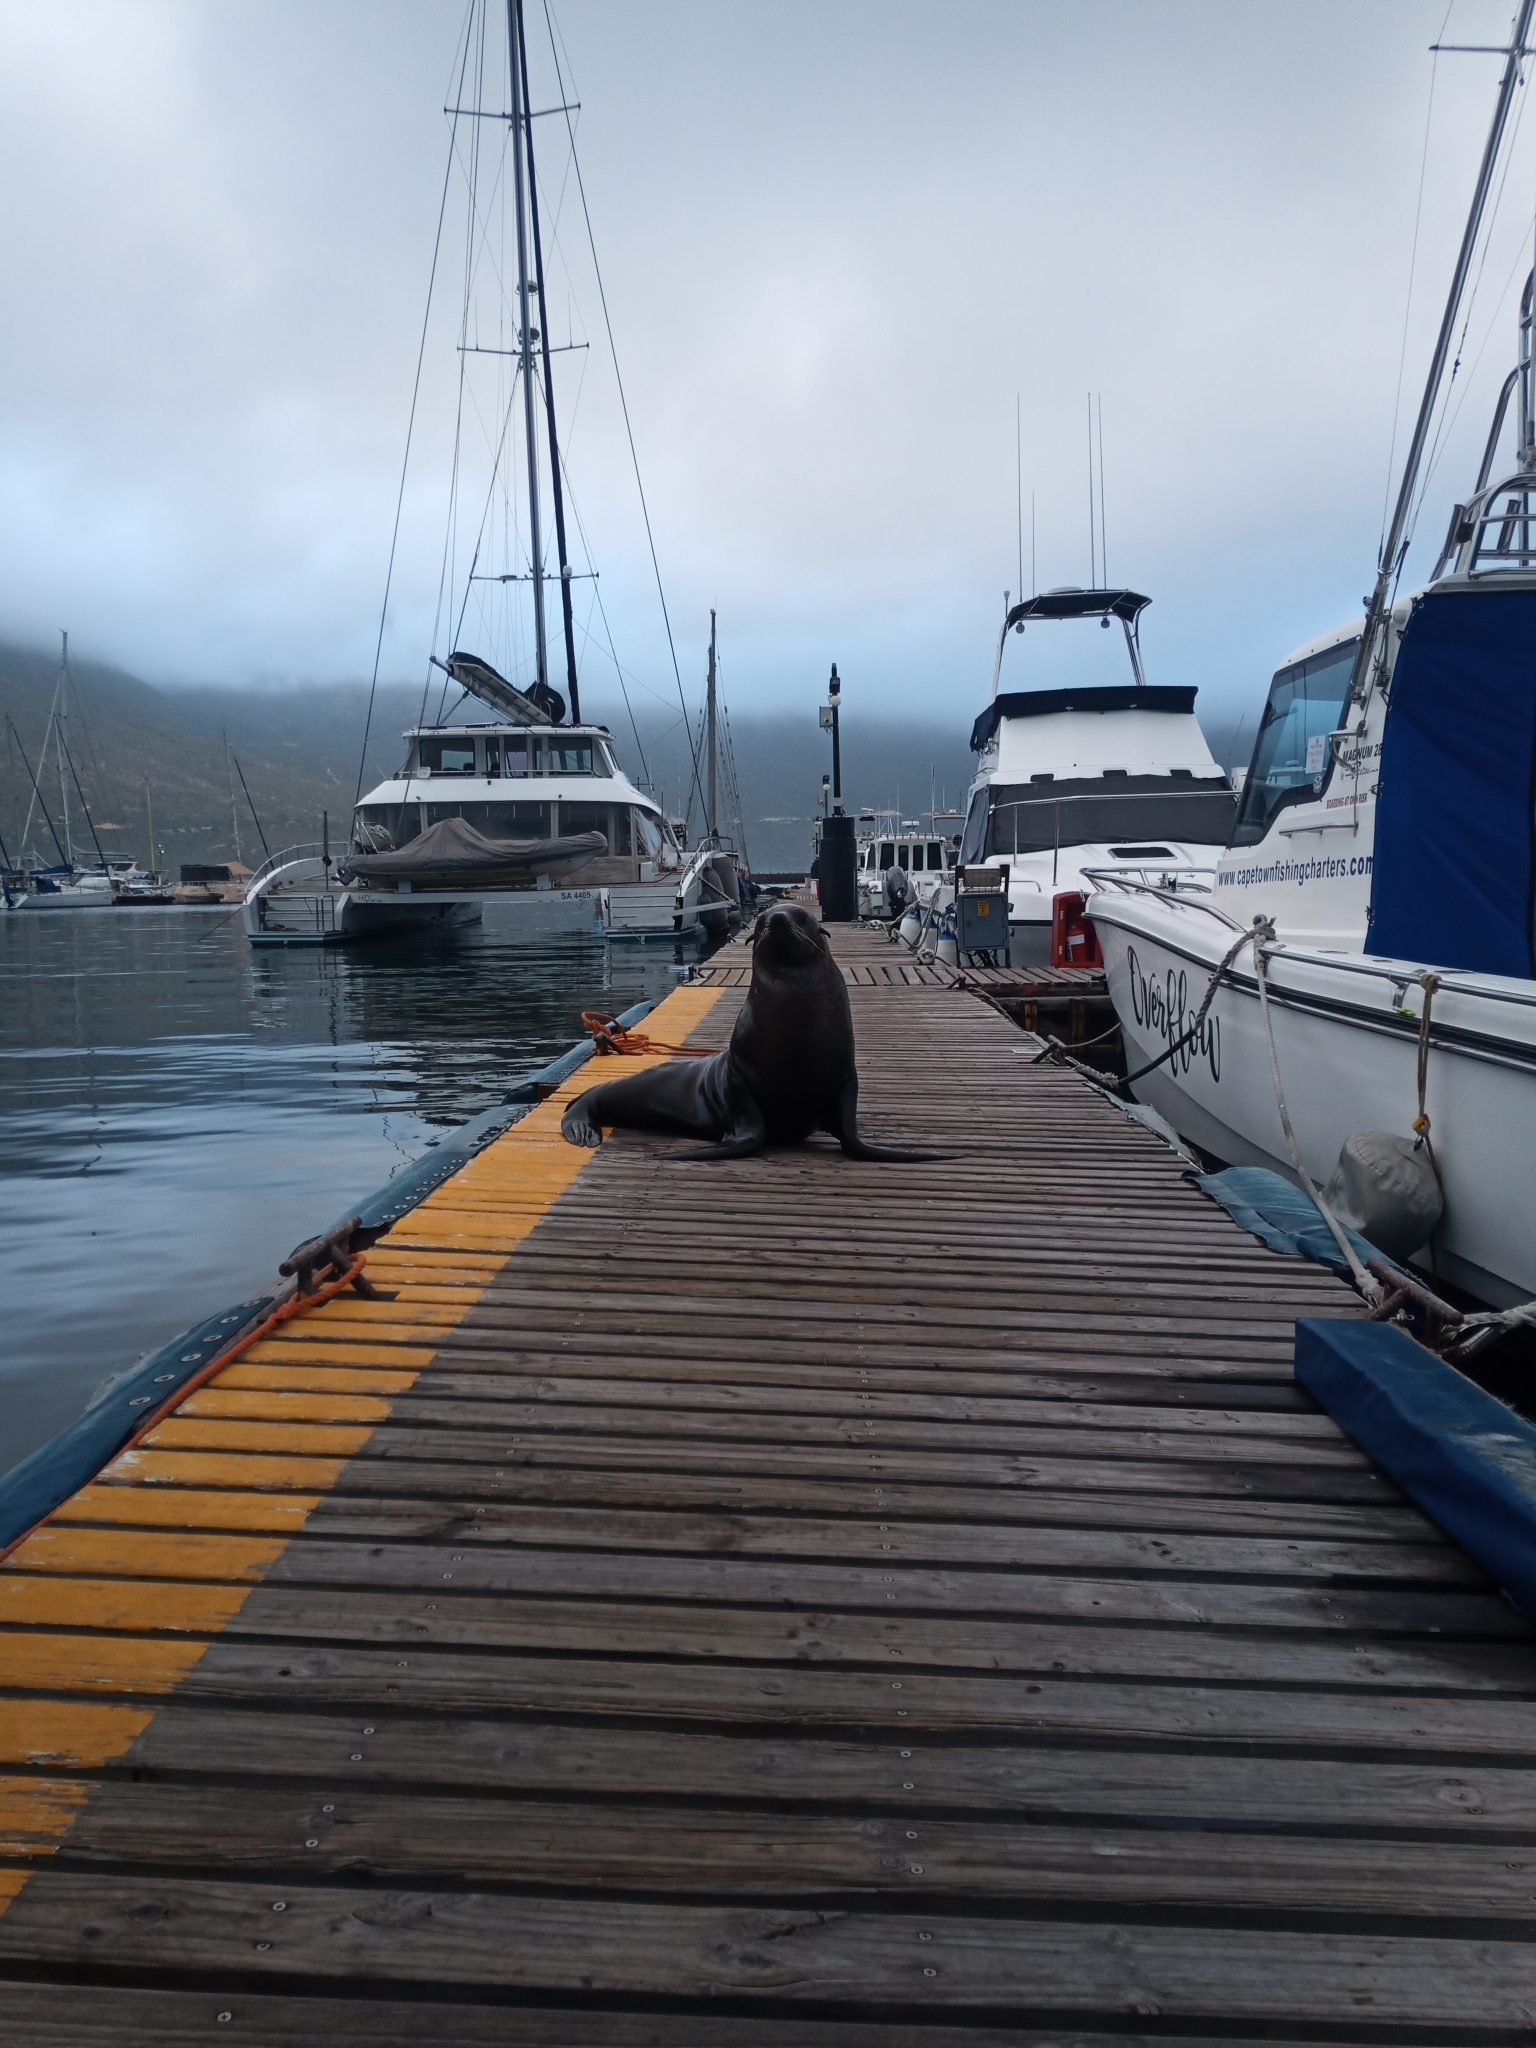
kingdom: Animalia
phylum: Chordata
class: Mammalia
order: Carnivora
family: Otariidae
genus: Arctocephalus
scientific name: Arctocephalus pusillus
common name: Brown fur seal
